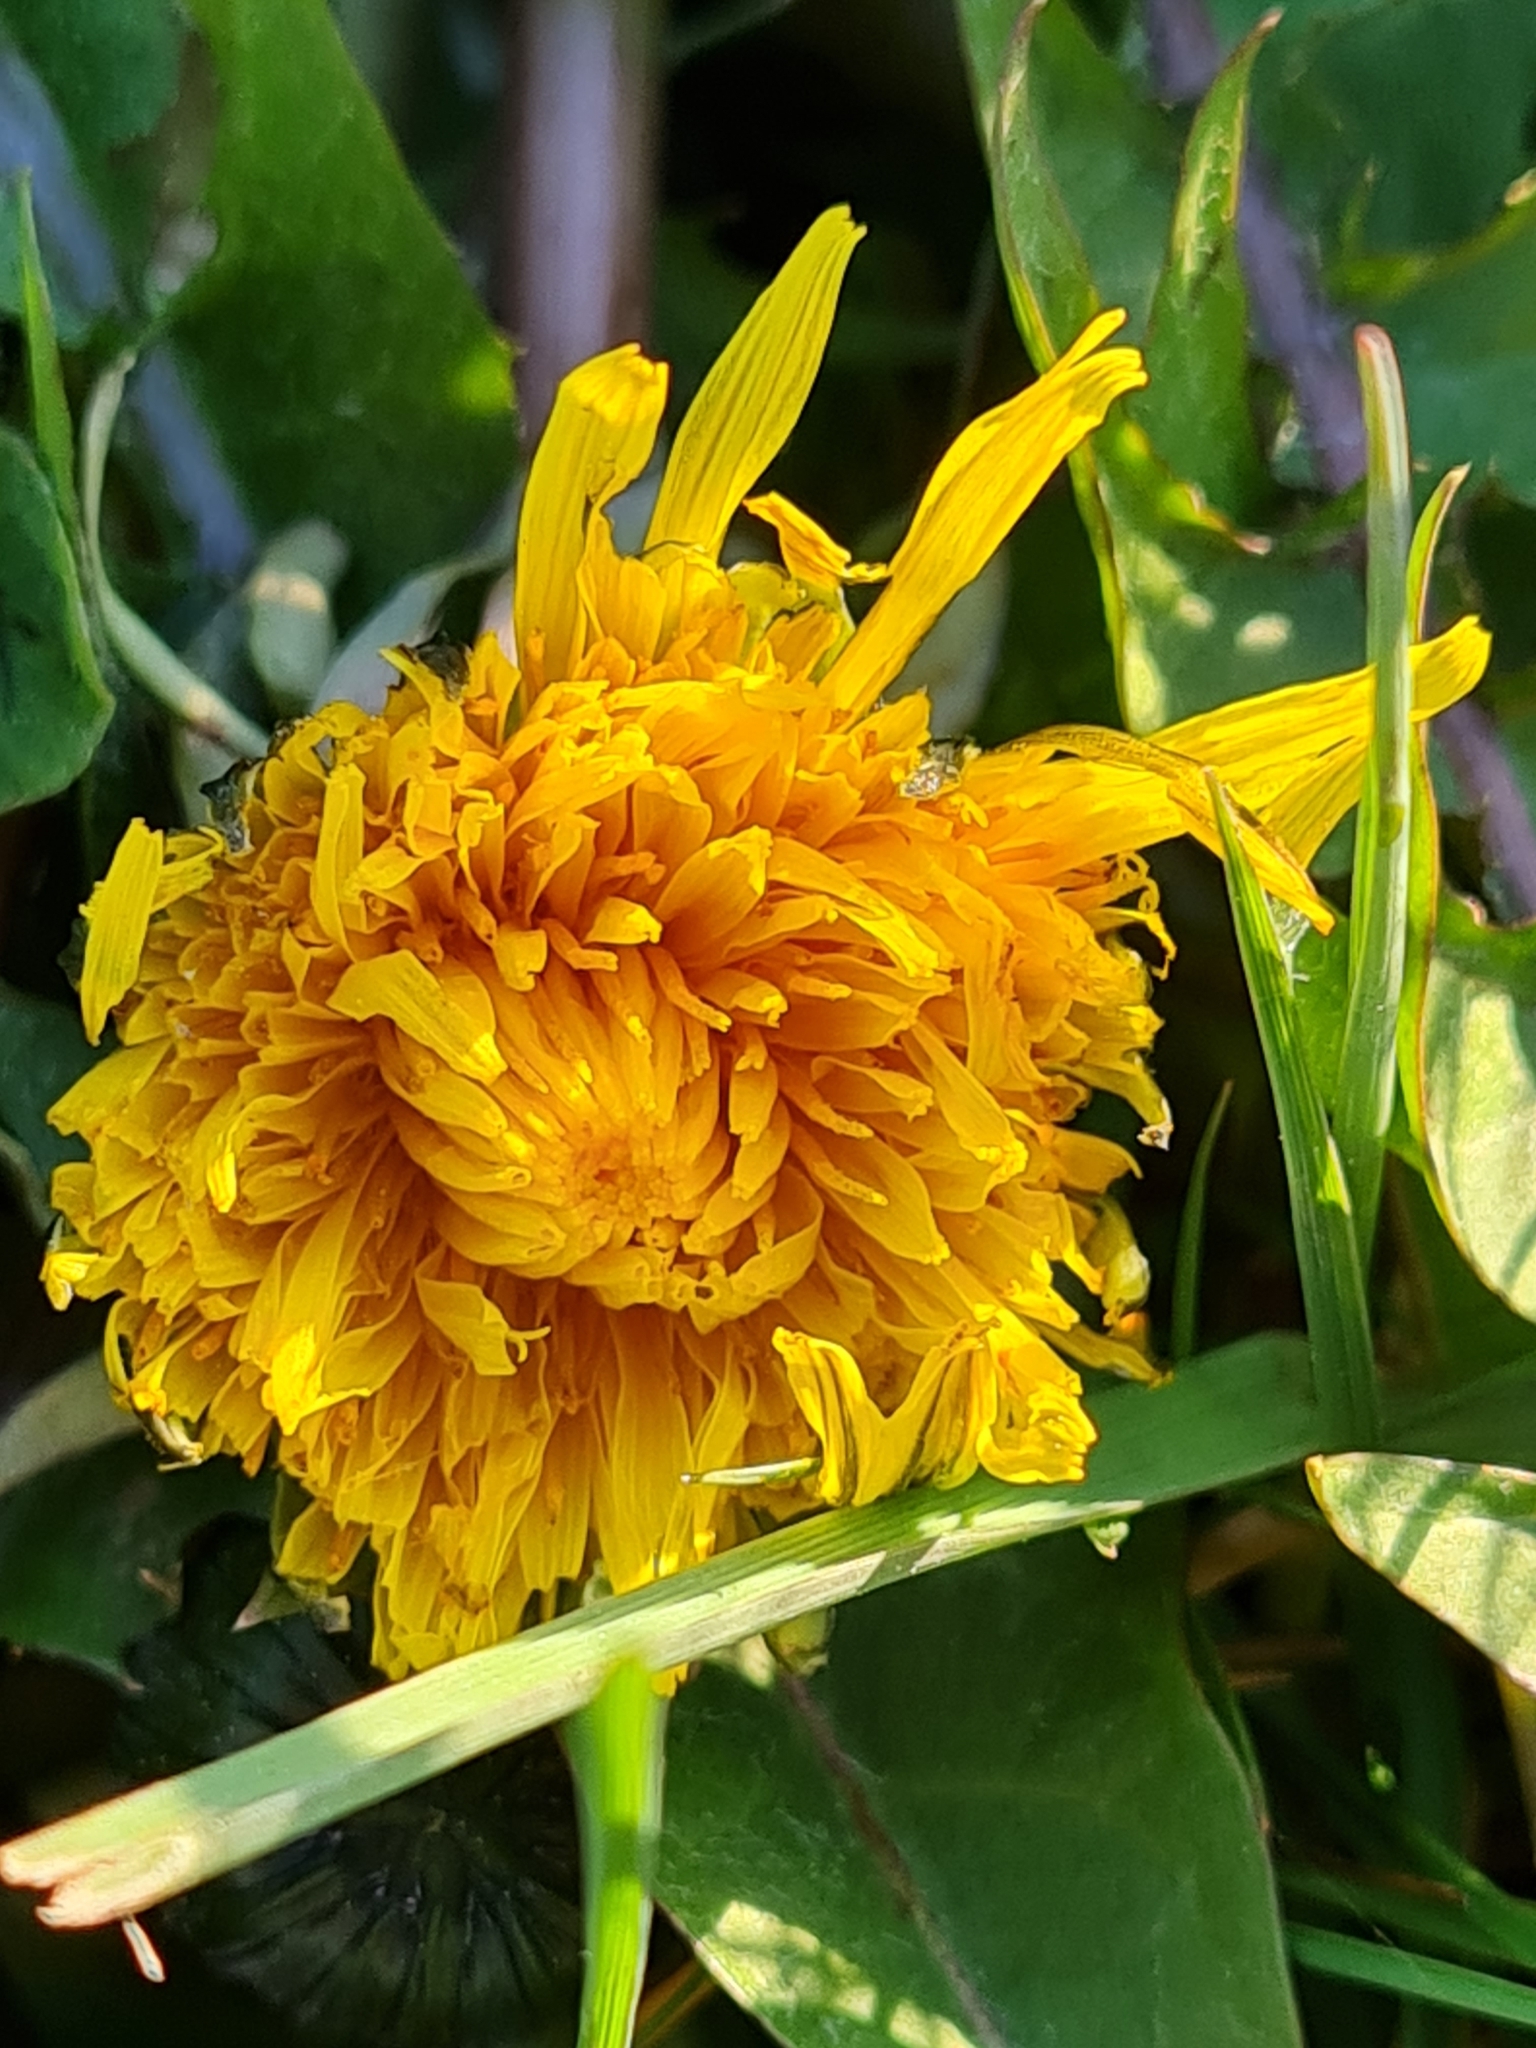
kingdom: Plantae
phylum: Tracheophyta
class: Magnoliopsida
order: Asterales
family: Asteraceae
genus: Taraxacum
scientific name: Taraxacum officinale
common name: Common dandelion
